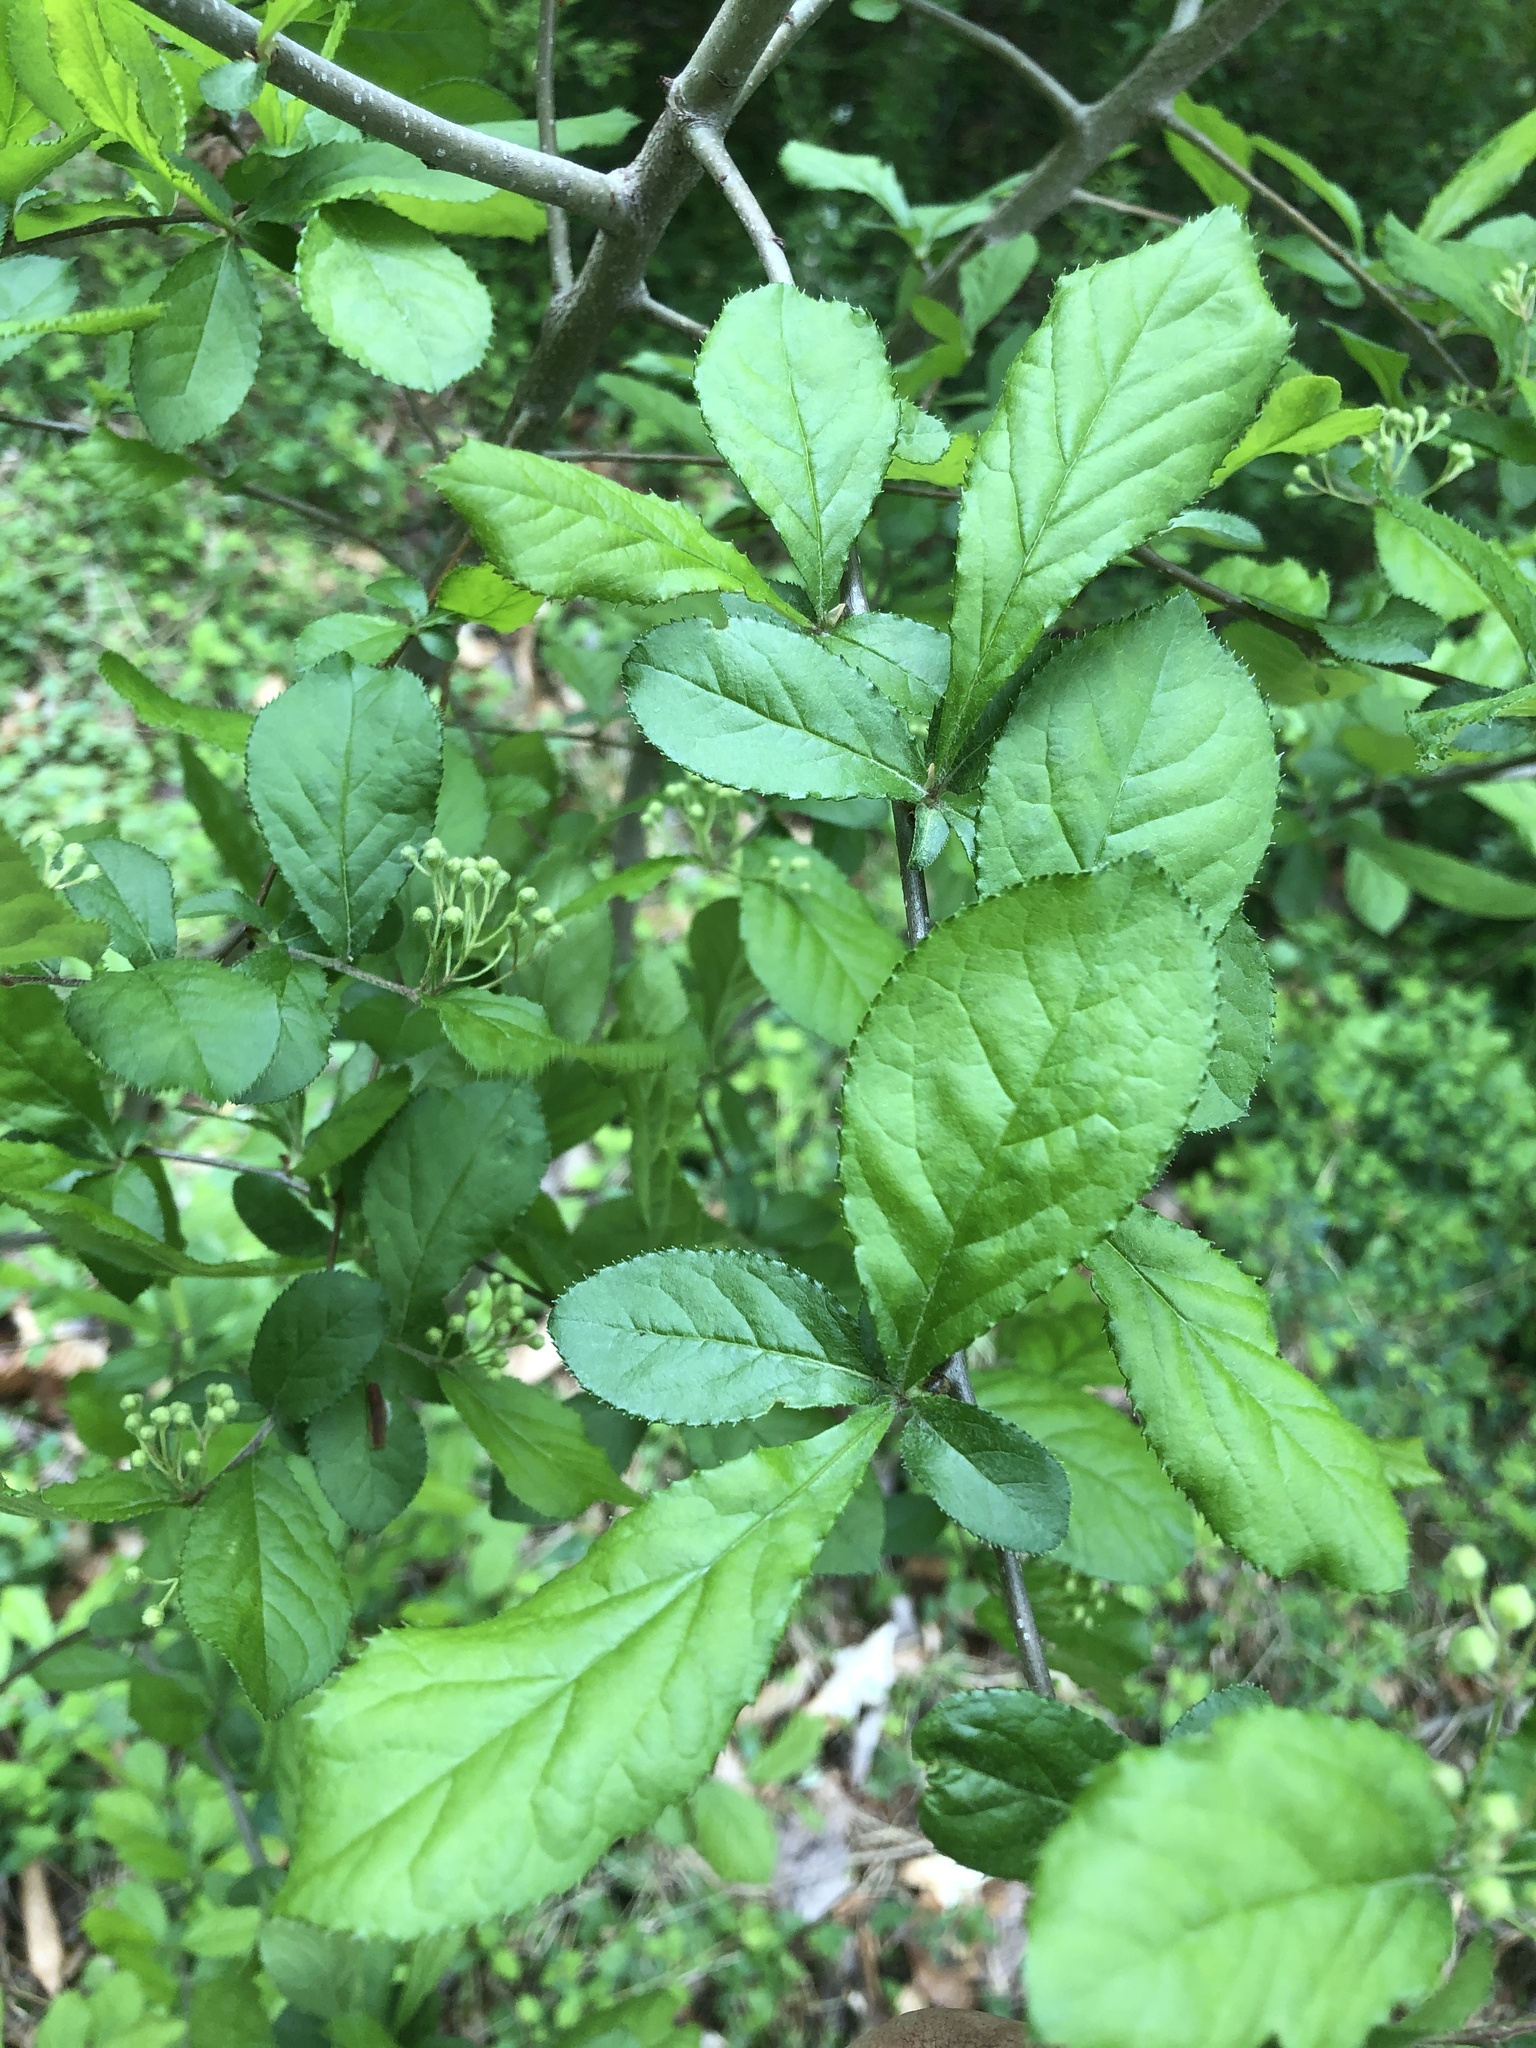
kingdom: Plantae
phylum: Tracheophyta
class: Magnoliopsida
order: Rosales
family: Rosaceae
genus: Pourthiaea
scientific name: Pourthiaea villosa
